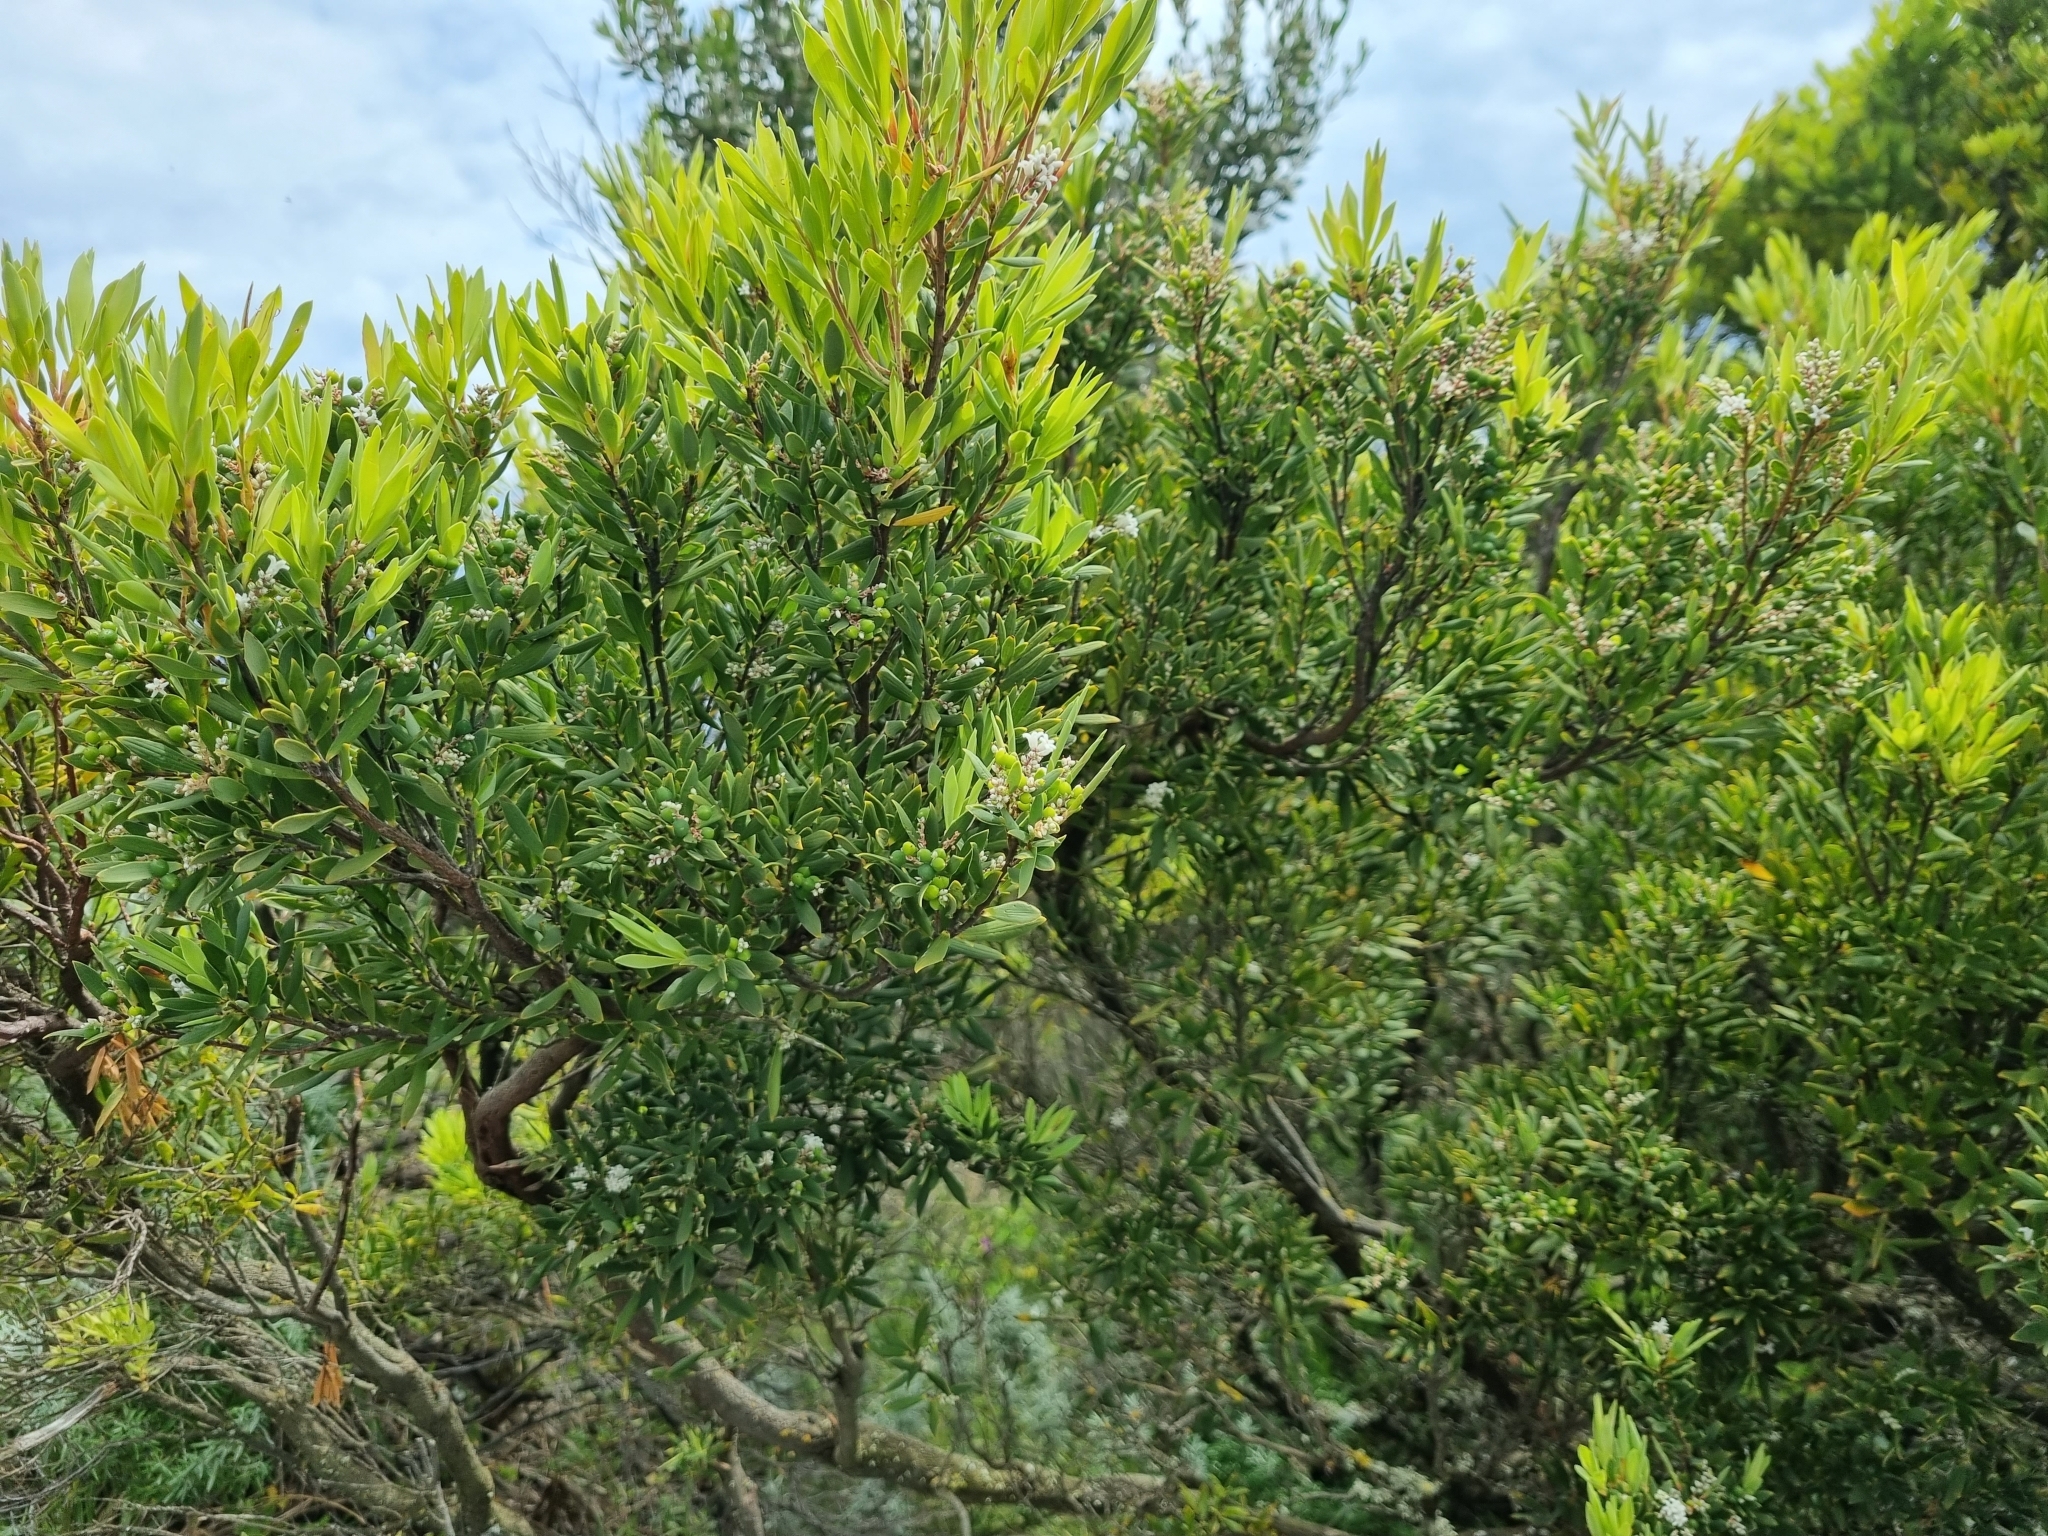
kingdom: Plantae
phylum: Tracheophyta
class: Magnoliopsida
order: Ericales
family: Ericaceae
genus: Leptecophylla
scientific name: Leptecophylla parvifolia
